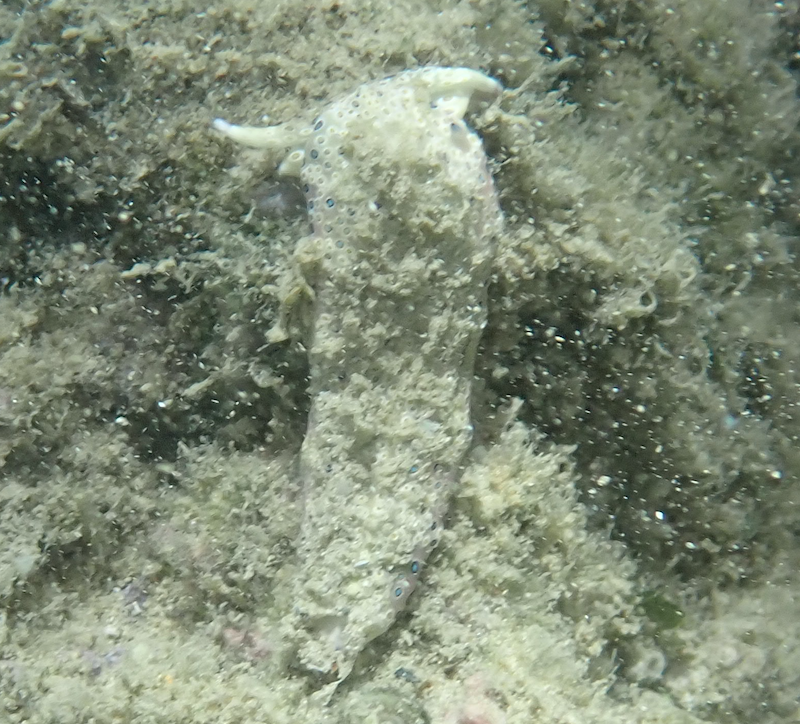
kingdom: Animalia
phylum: Mollusca
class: Gastropoda
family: Plakobranchidae
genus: Plakobranchus
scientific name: Plakobranchus ocellatus
